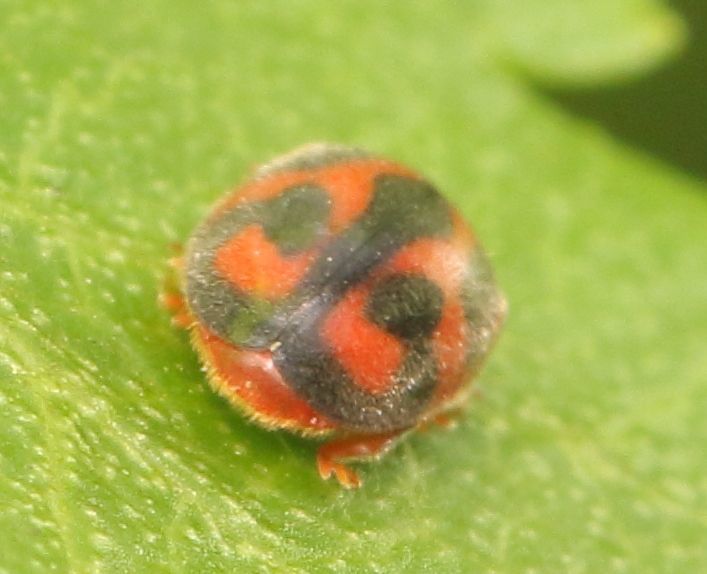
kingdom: Animalia
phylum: Arthropoda
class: Insecta
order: Coleoptera
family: Coccinellidae
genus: Novius
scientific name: Novius cardinalis
